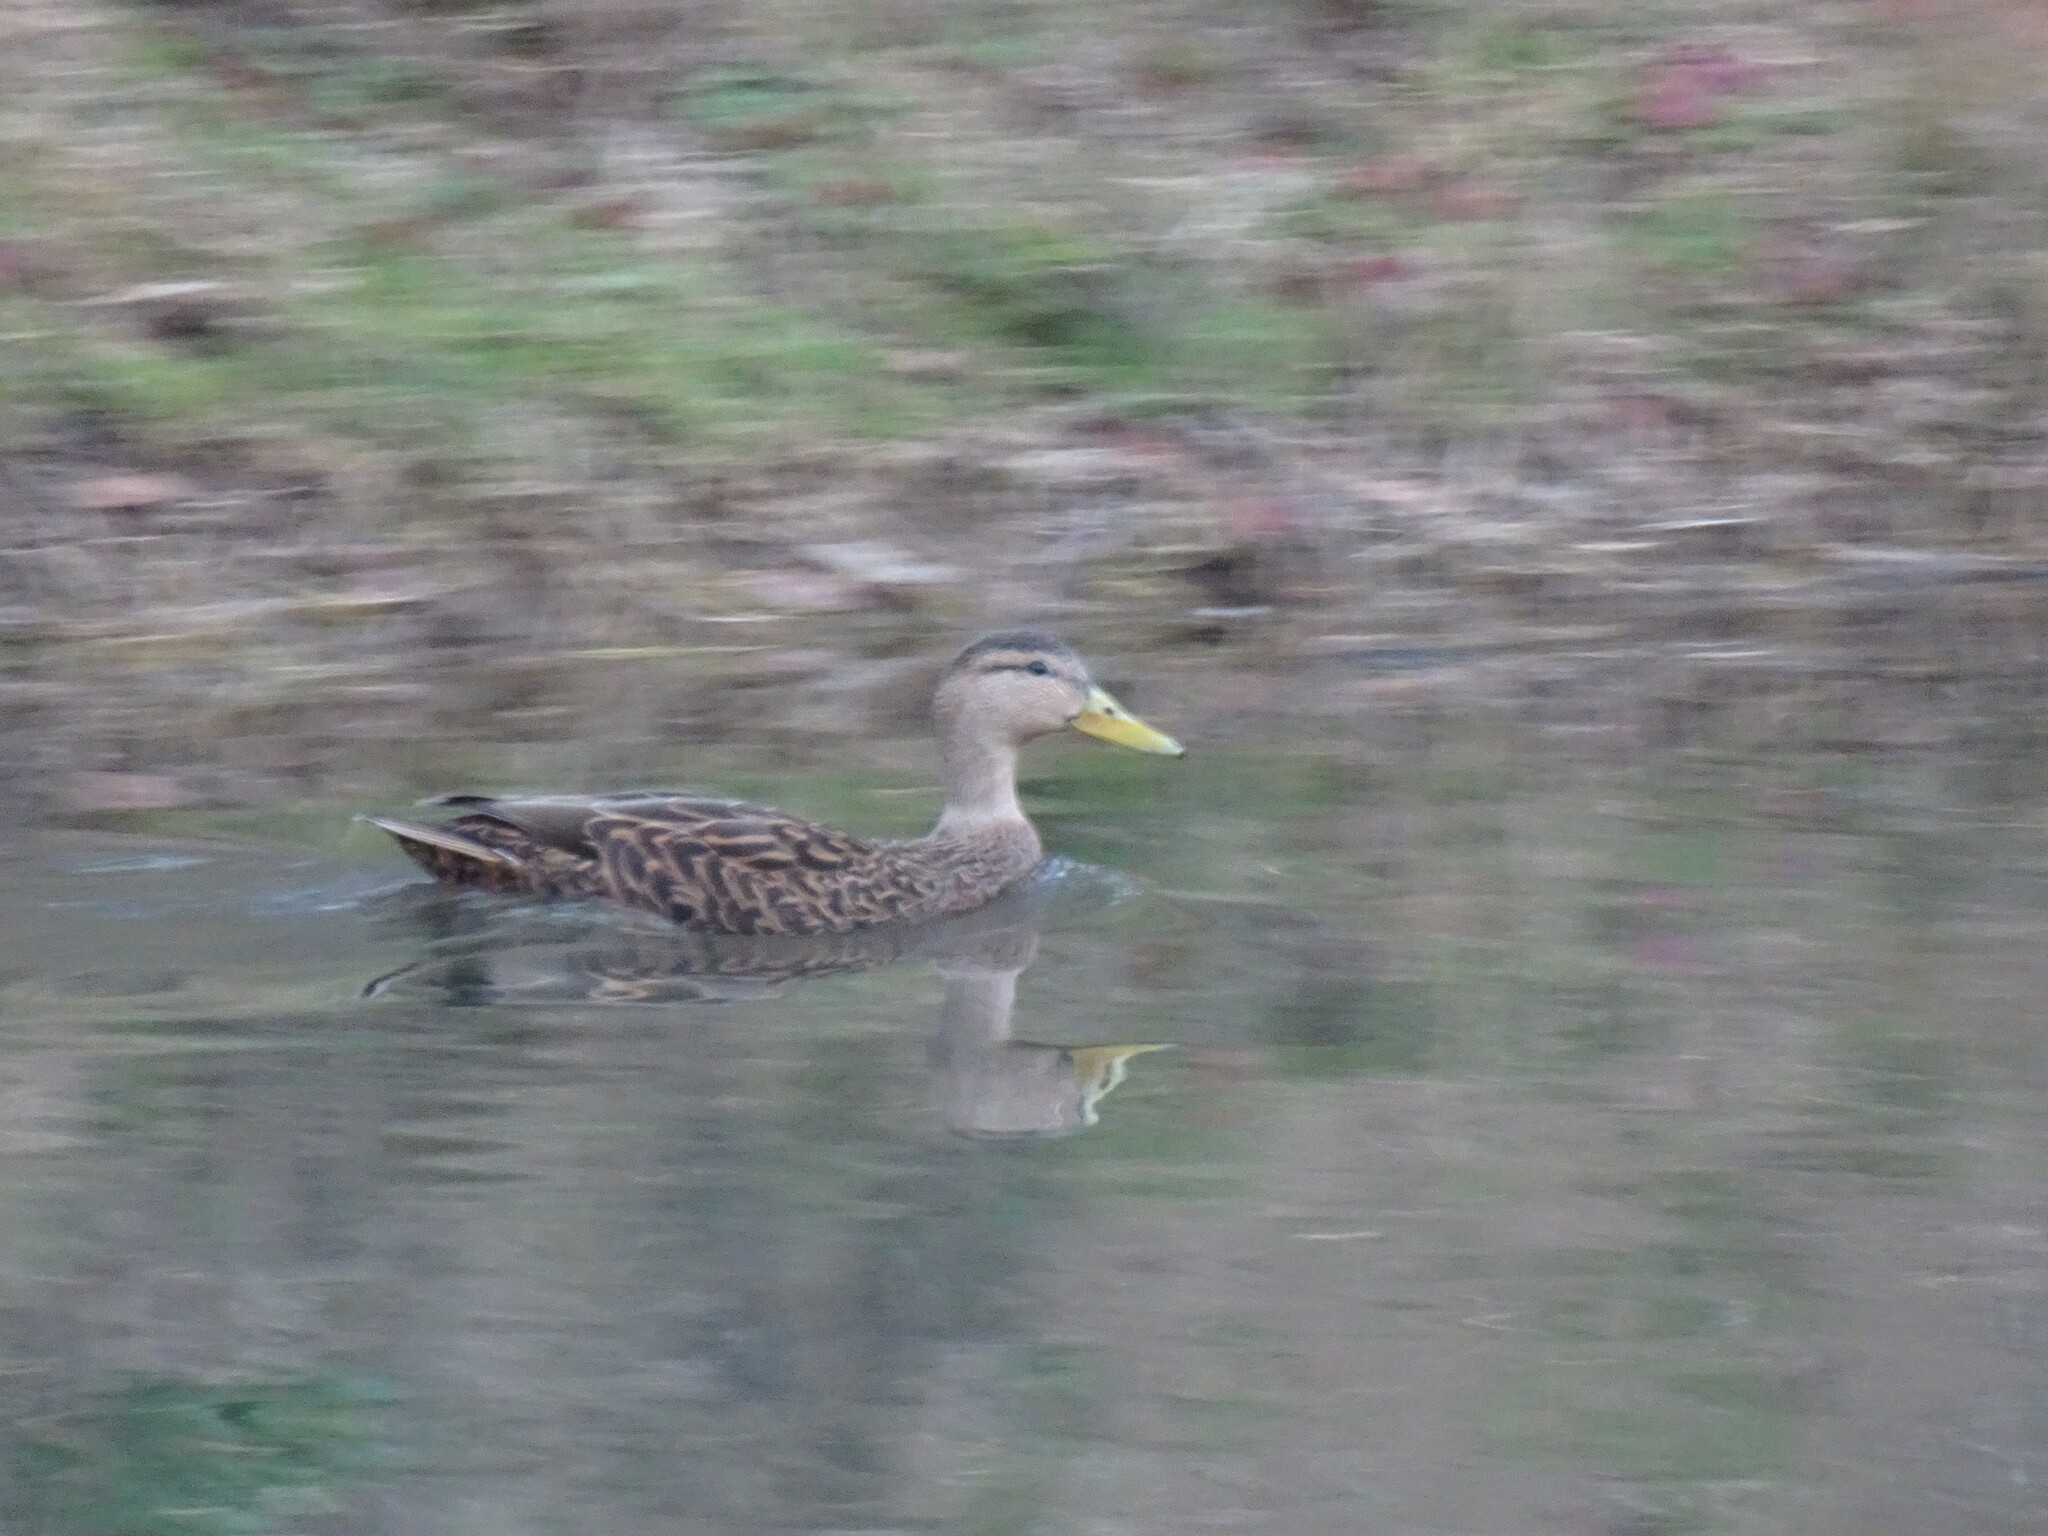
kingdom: Animalia
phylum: Chordata
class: Aves
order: Anseriformes
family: Anatidae
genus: Anas
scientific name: Anas diazi
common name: Mexican duck
